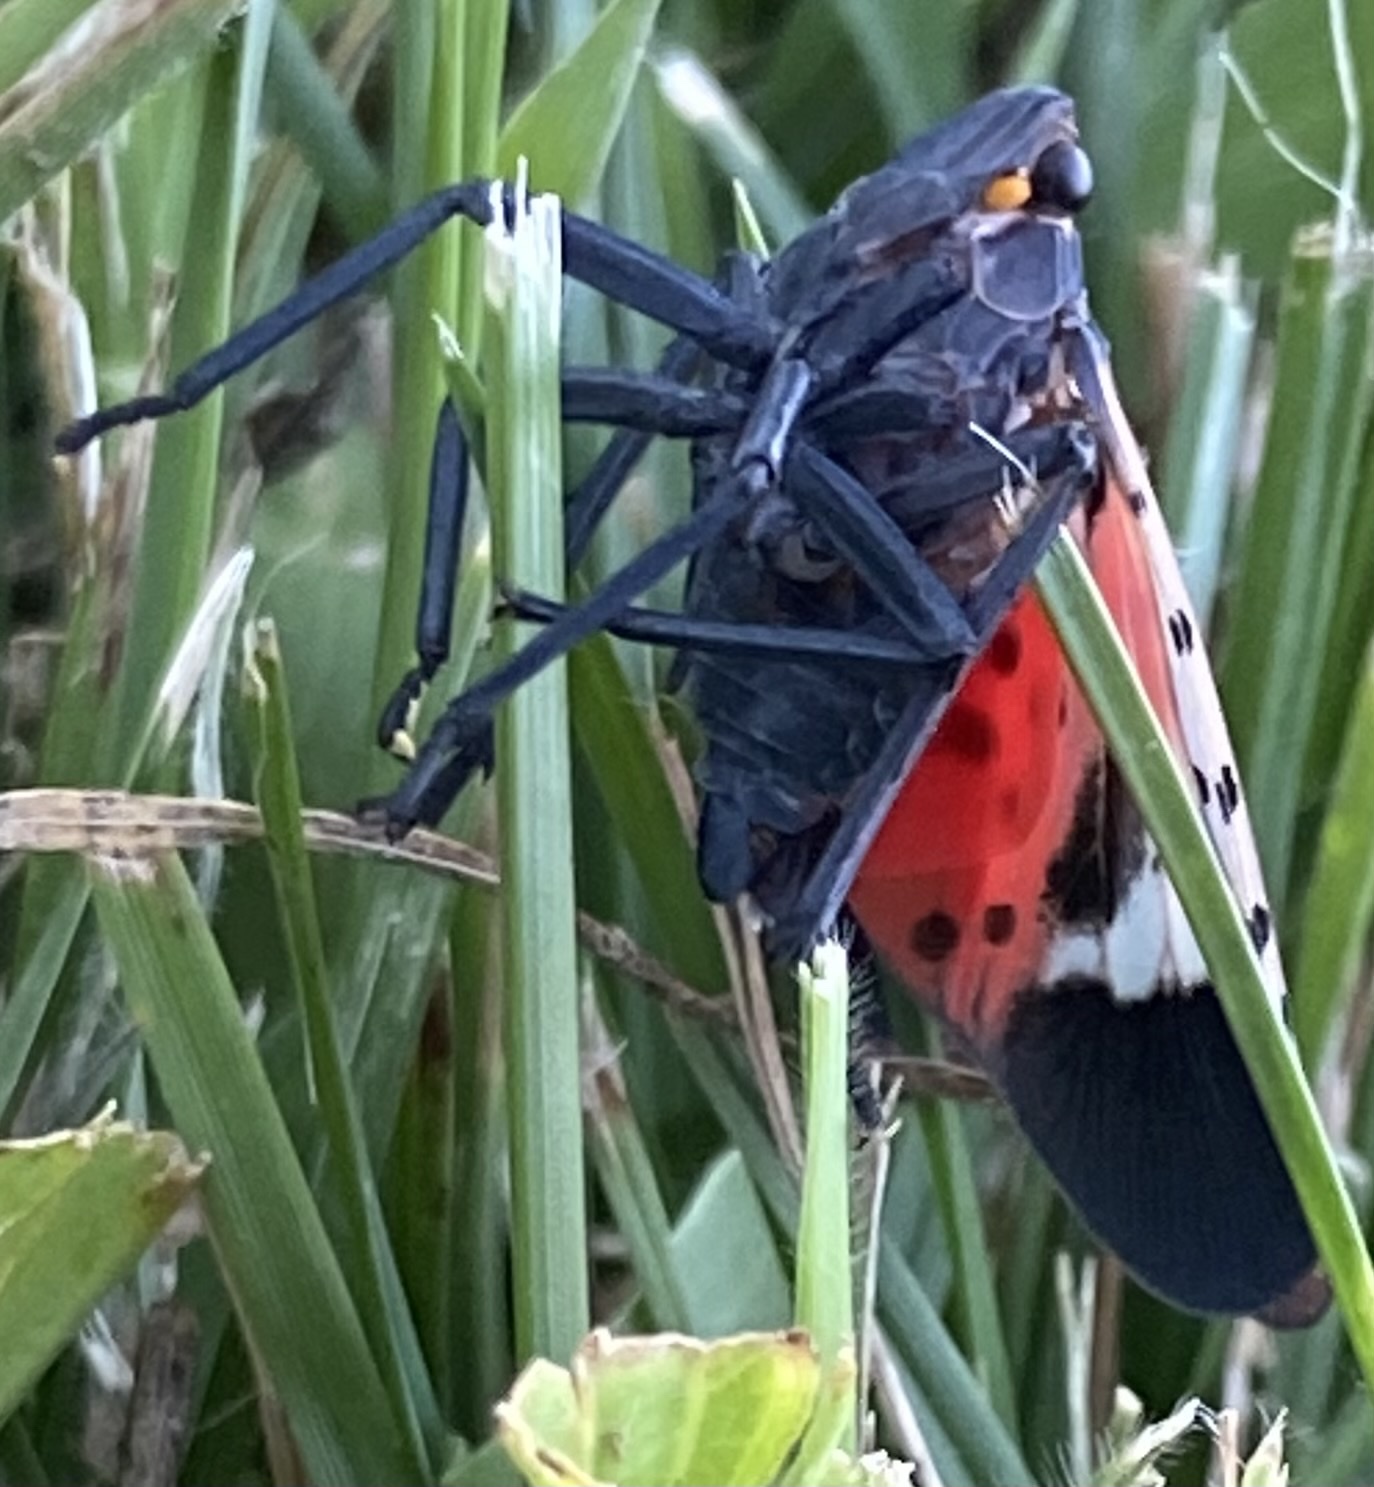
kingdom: Animalia
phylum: Arthropoda
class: Insecta
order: Hemiptera
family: Fulgoridae
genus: Lycorma
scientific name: Lycorma delicatula
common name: Spotted lanternfly
